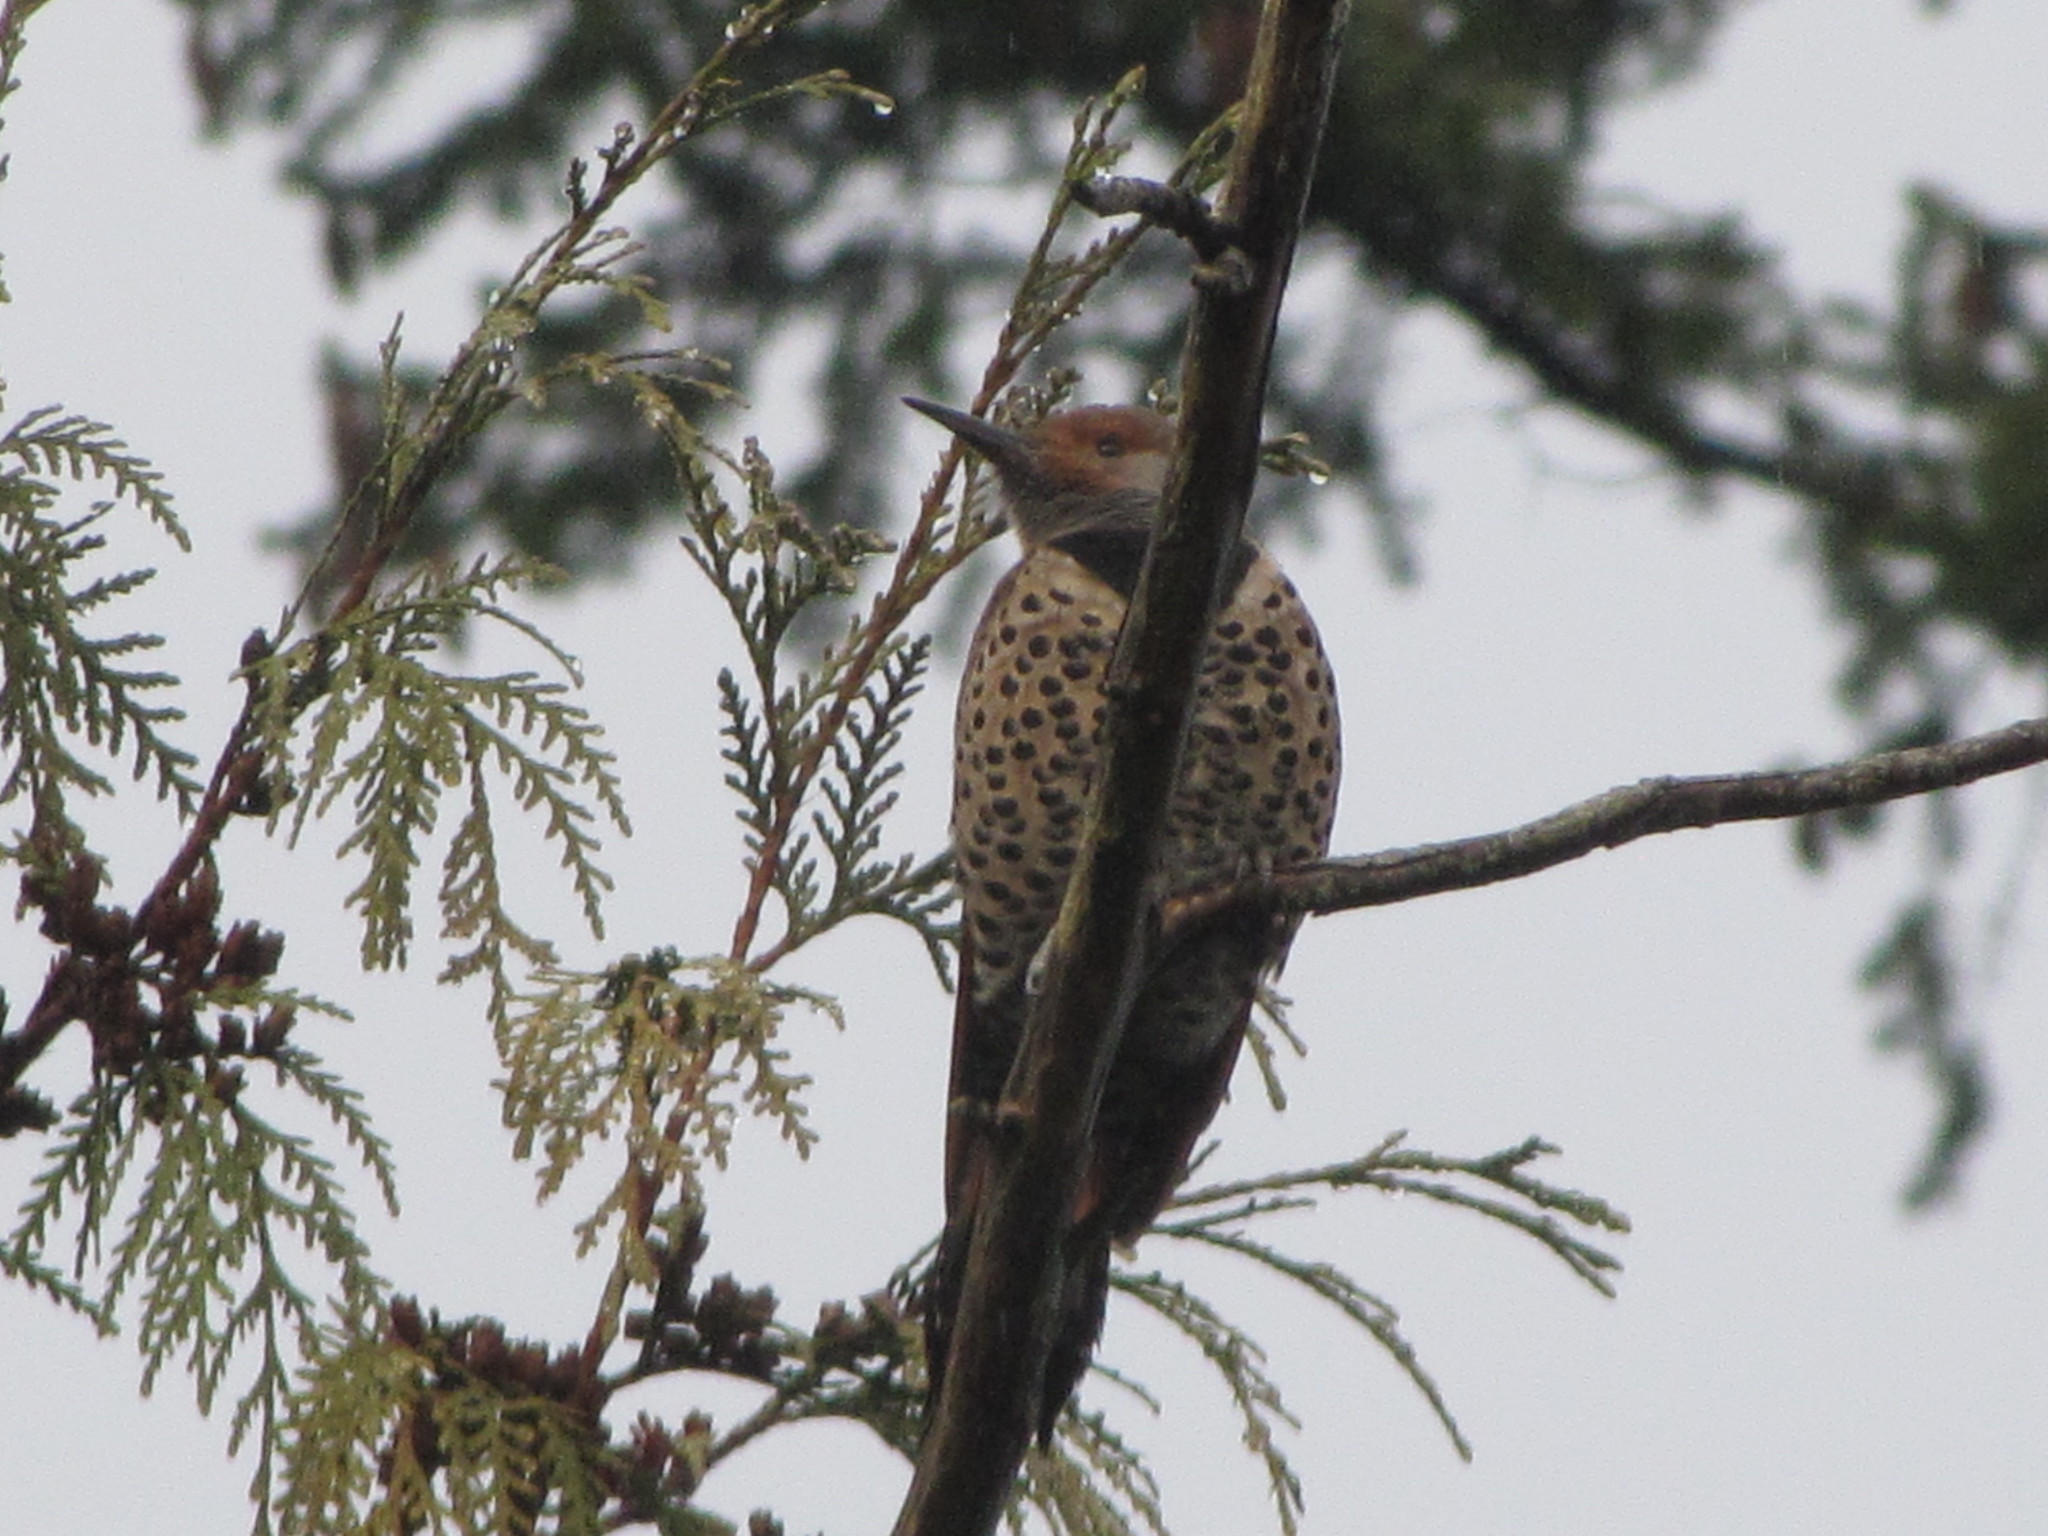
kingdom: Animalia
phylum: Chordata
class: Aves
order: Piciformes
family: Picidae
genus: Colaptes
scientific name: Colaptes auratus
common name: Northern flicker
